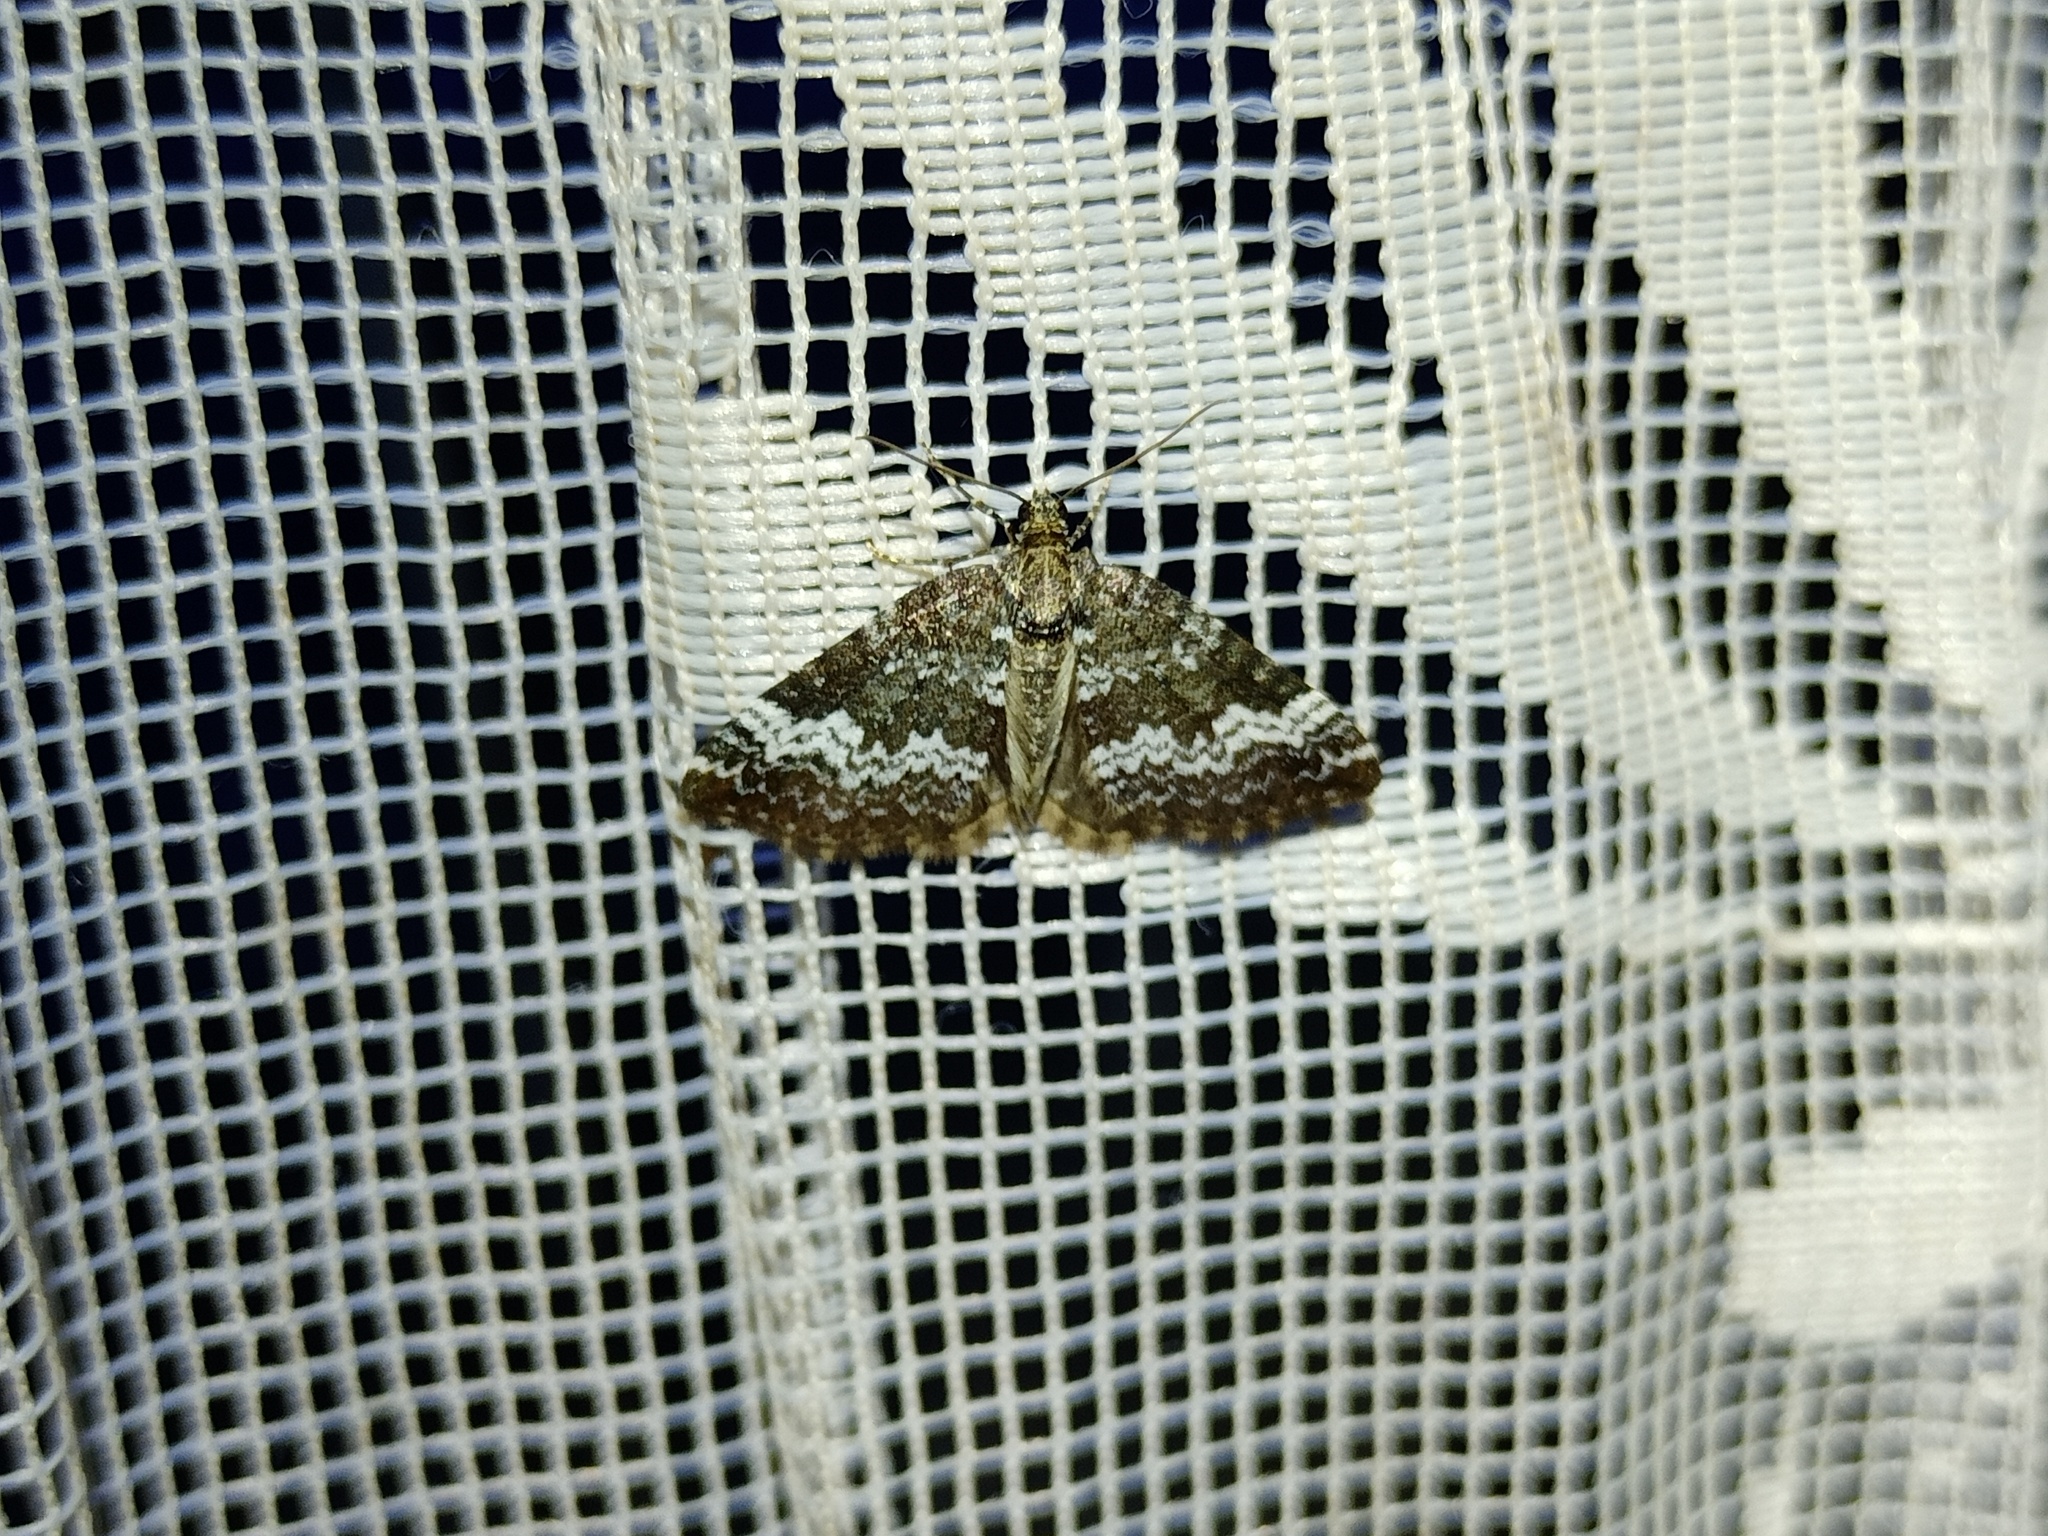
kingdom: Animalia
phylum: Arthropoda
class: Insecta
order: Lepidoptera
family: Geometridae
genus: Perizoma
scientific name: Perizoma alchemillata
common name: Small rivulet
